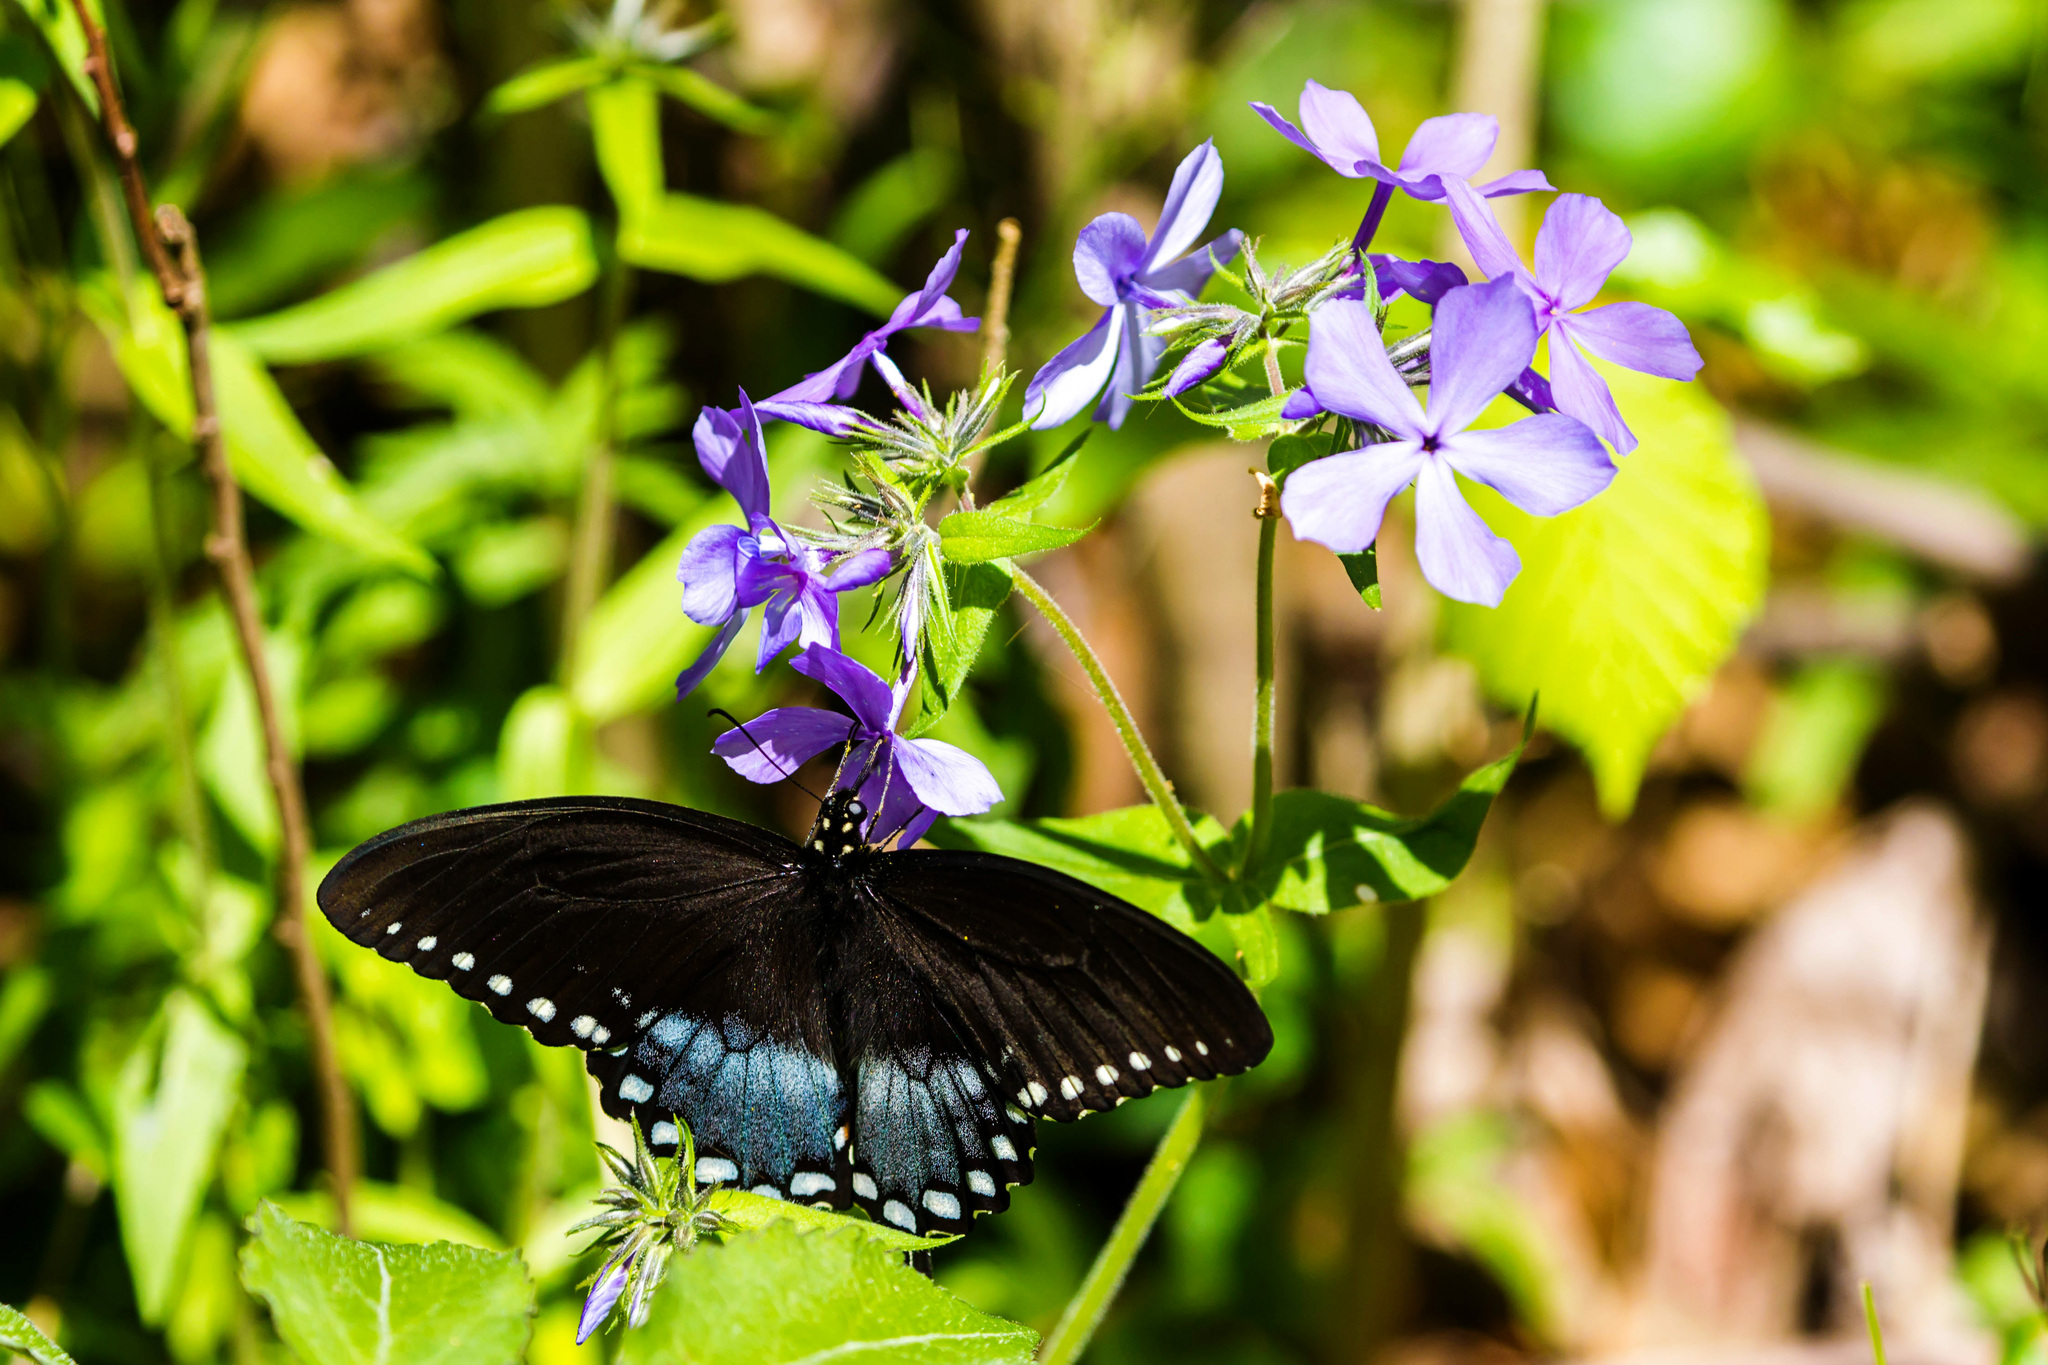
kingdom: Animalia
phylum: Arthropoda
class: Insecta
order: Lepidoptera
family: Papilionidae
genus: Papilio
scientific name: Papilio troilus
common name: Spicebush swallowtail
